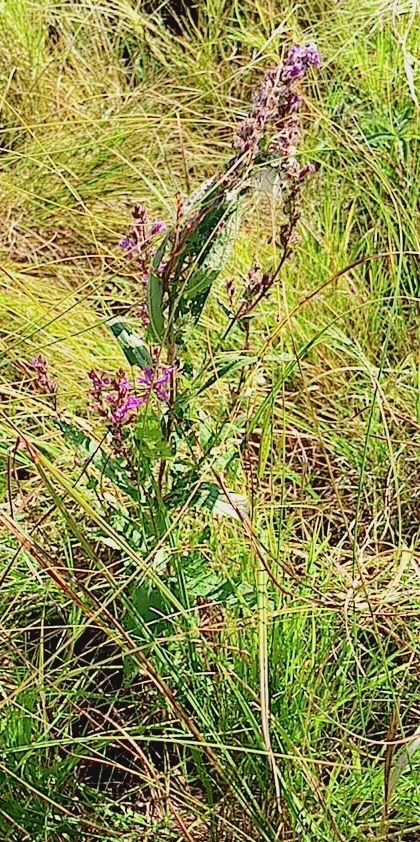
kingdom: Plantae
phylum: Tracheophyta
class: Magnoliopsida
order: Myrtales
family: Lythraceae
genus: Lythrum
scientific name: Lythrum salicaria
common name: Purple loosestrife
